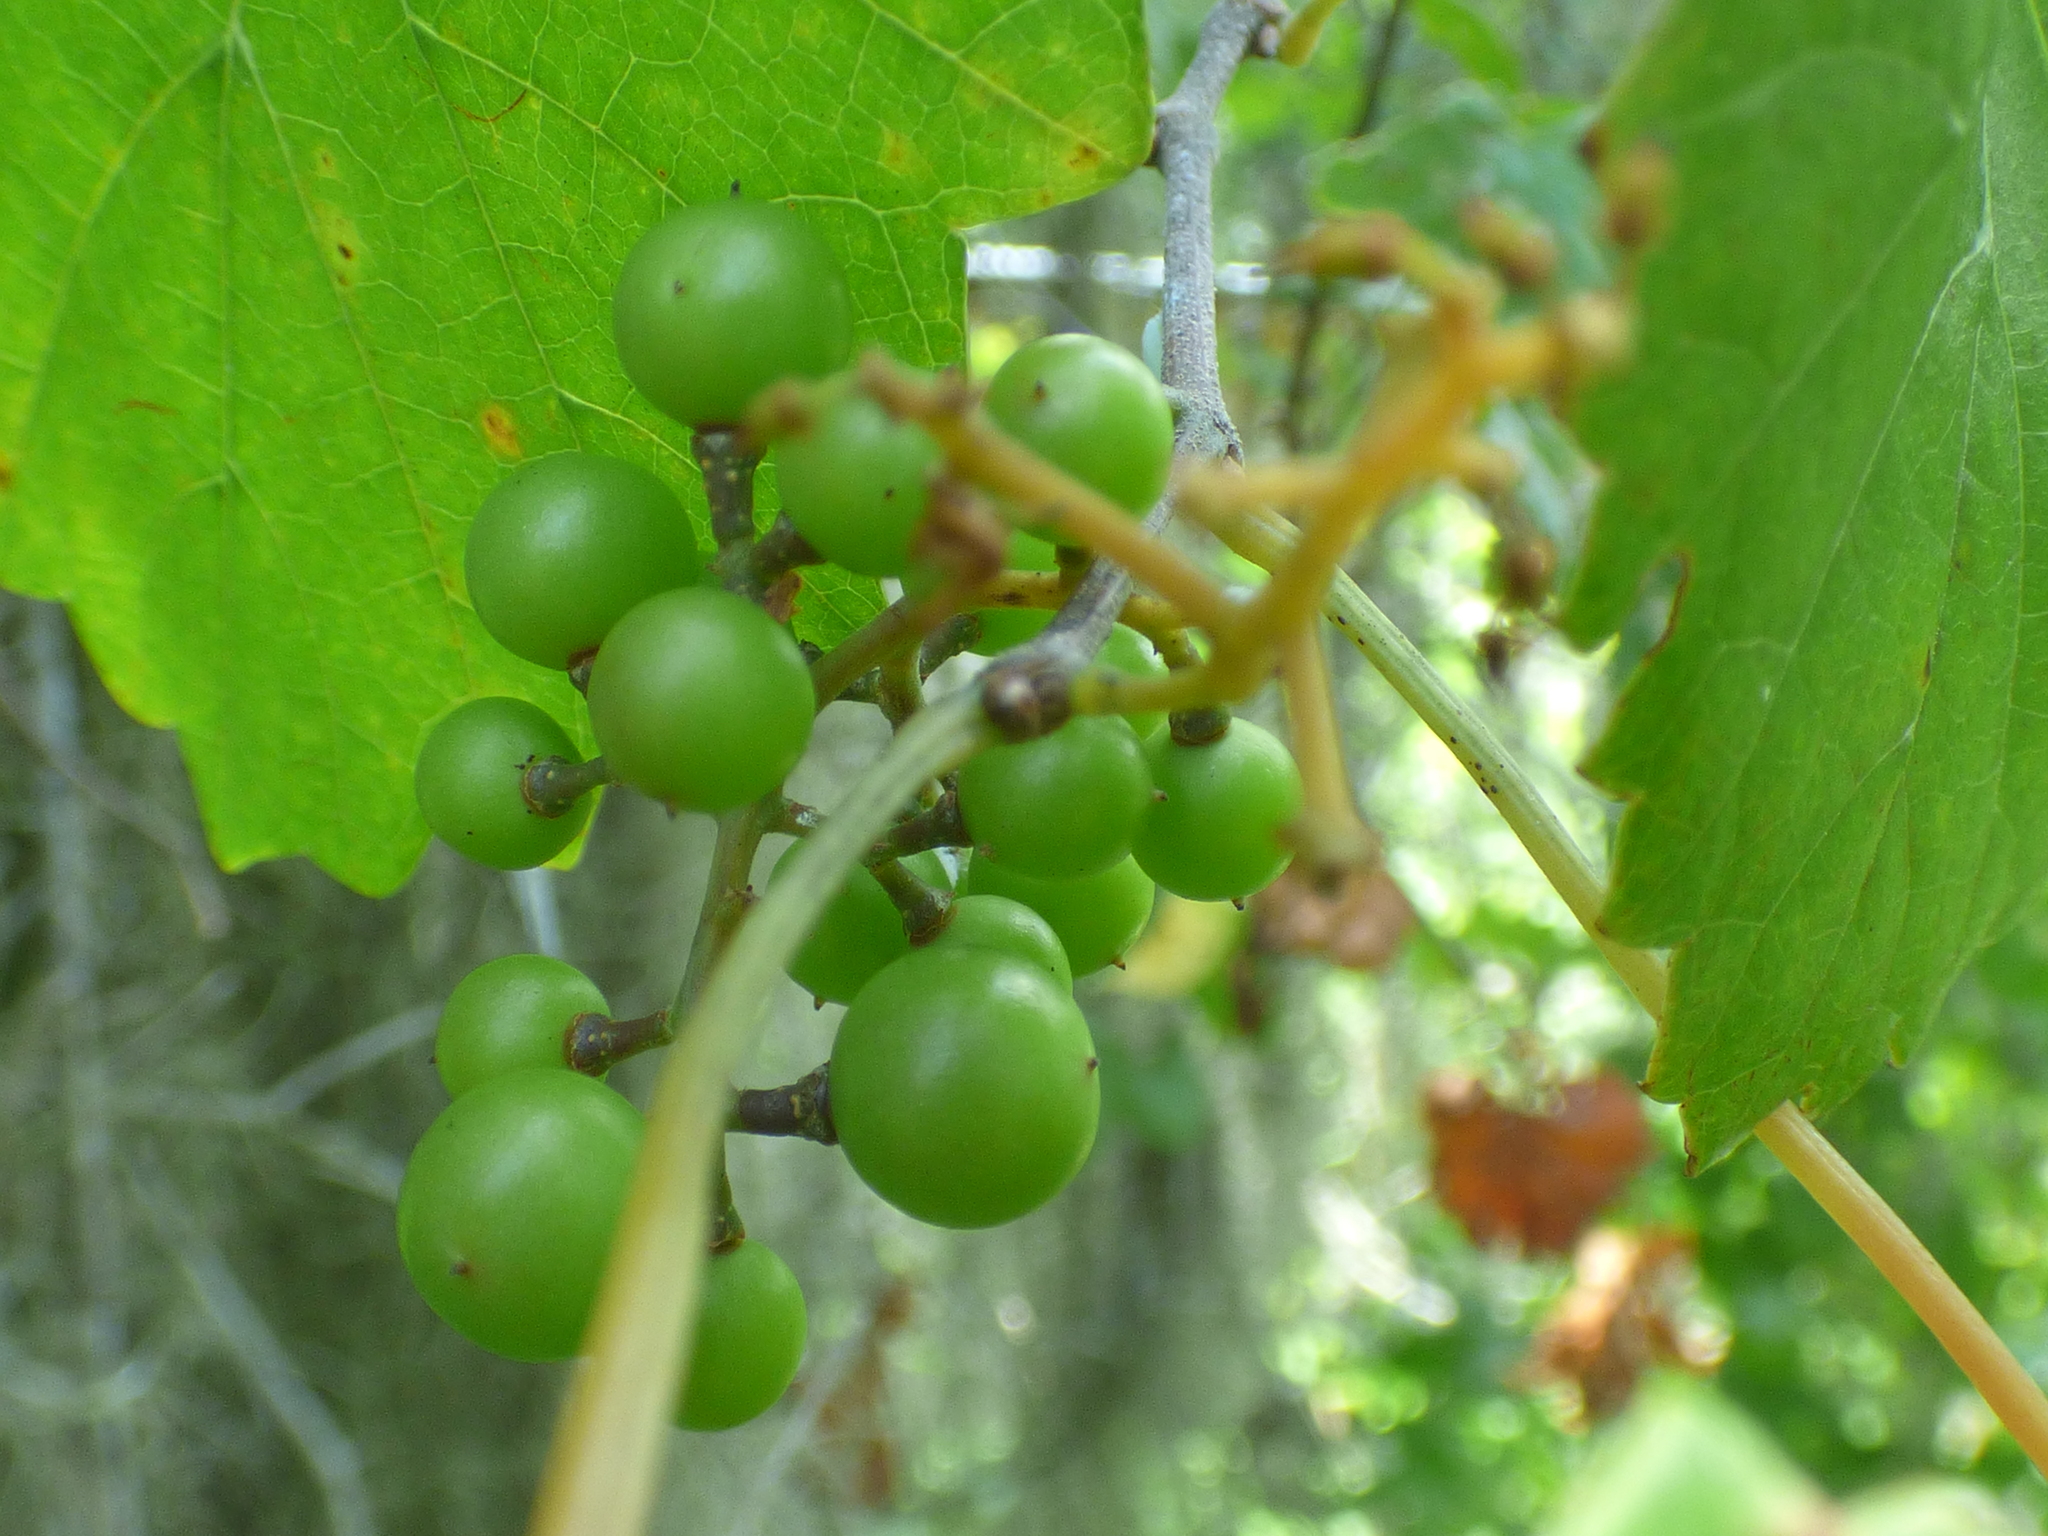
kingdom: Plantae
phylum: Tracheophyta
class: Magnoliopsida
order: Vitales
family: Vitaceae
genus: Vitis
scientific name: Vitis rotundifolia
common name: Muscadine grape
